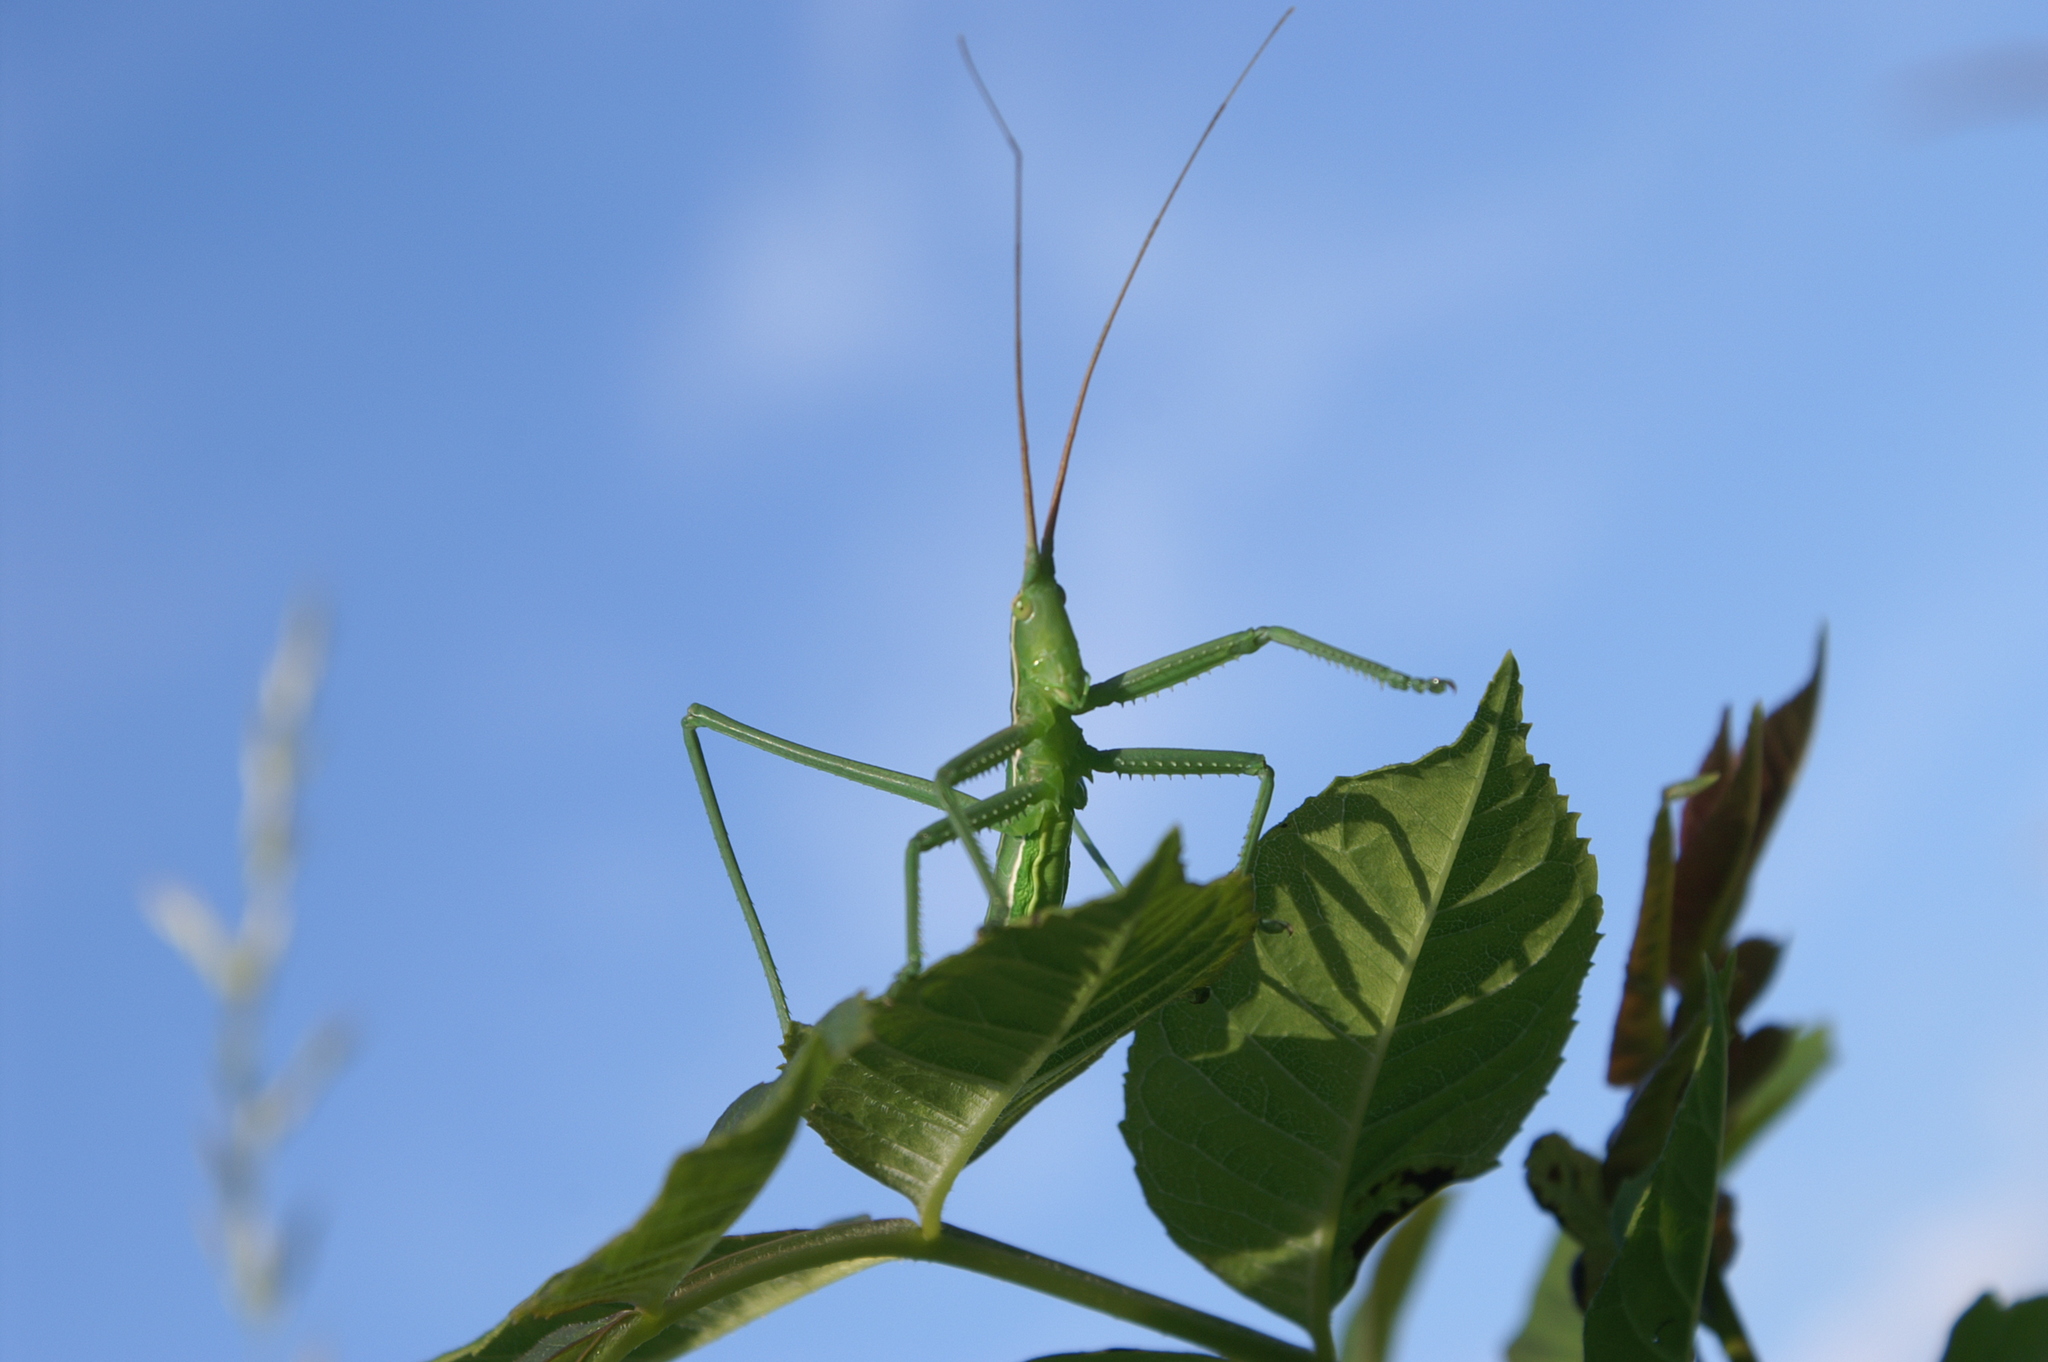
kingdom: Animalia
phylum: Arthropoda
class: Insecta
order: Orthoptera
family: Tettigoniidae
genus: Saga
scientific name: Saga pedo
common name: Common predatory bush-cricket
